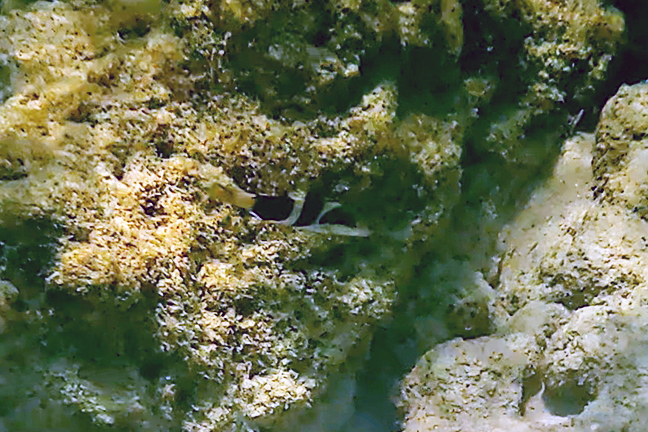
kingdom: Animalia
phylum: Chordata
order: Perciformes
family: Labridae
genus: Thalassoma
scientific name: Thalassoma nigrofasciatum
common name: Black-barred wrasse
